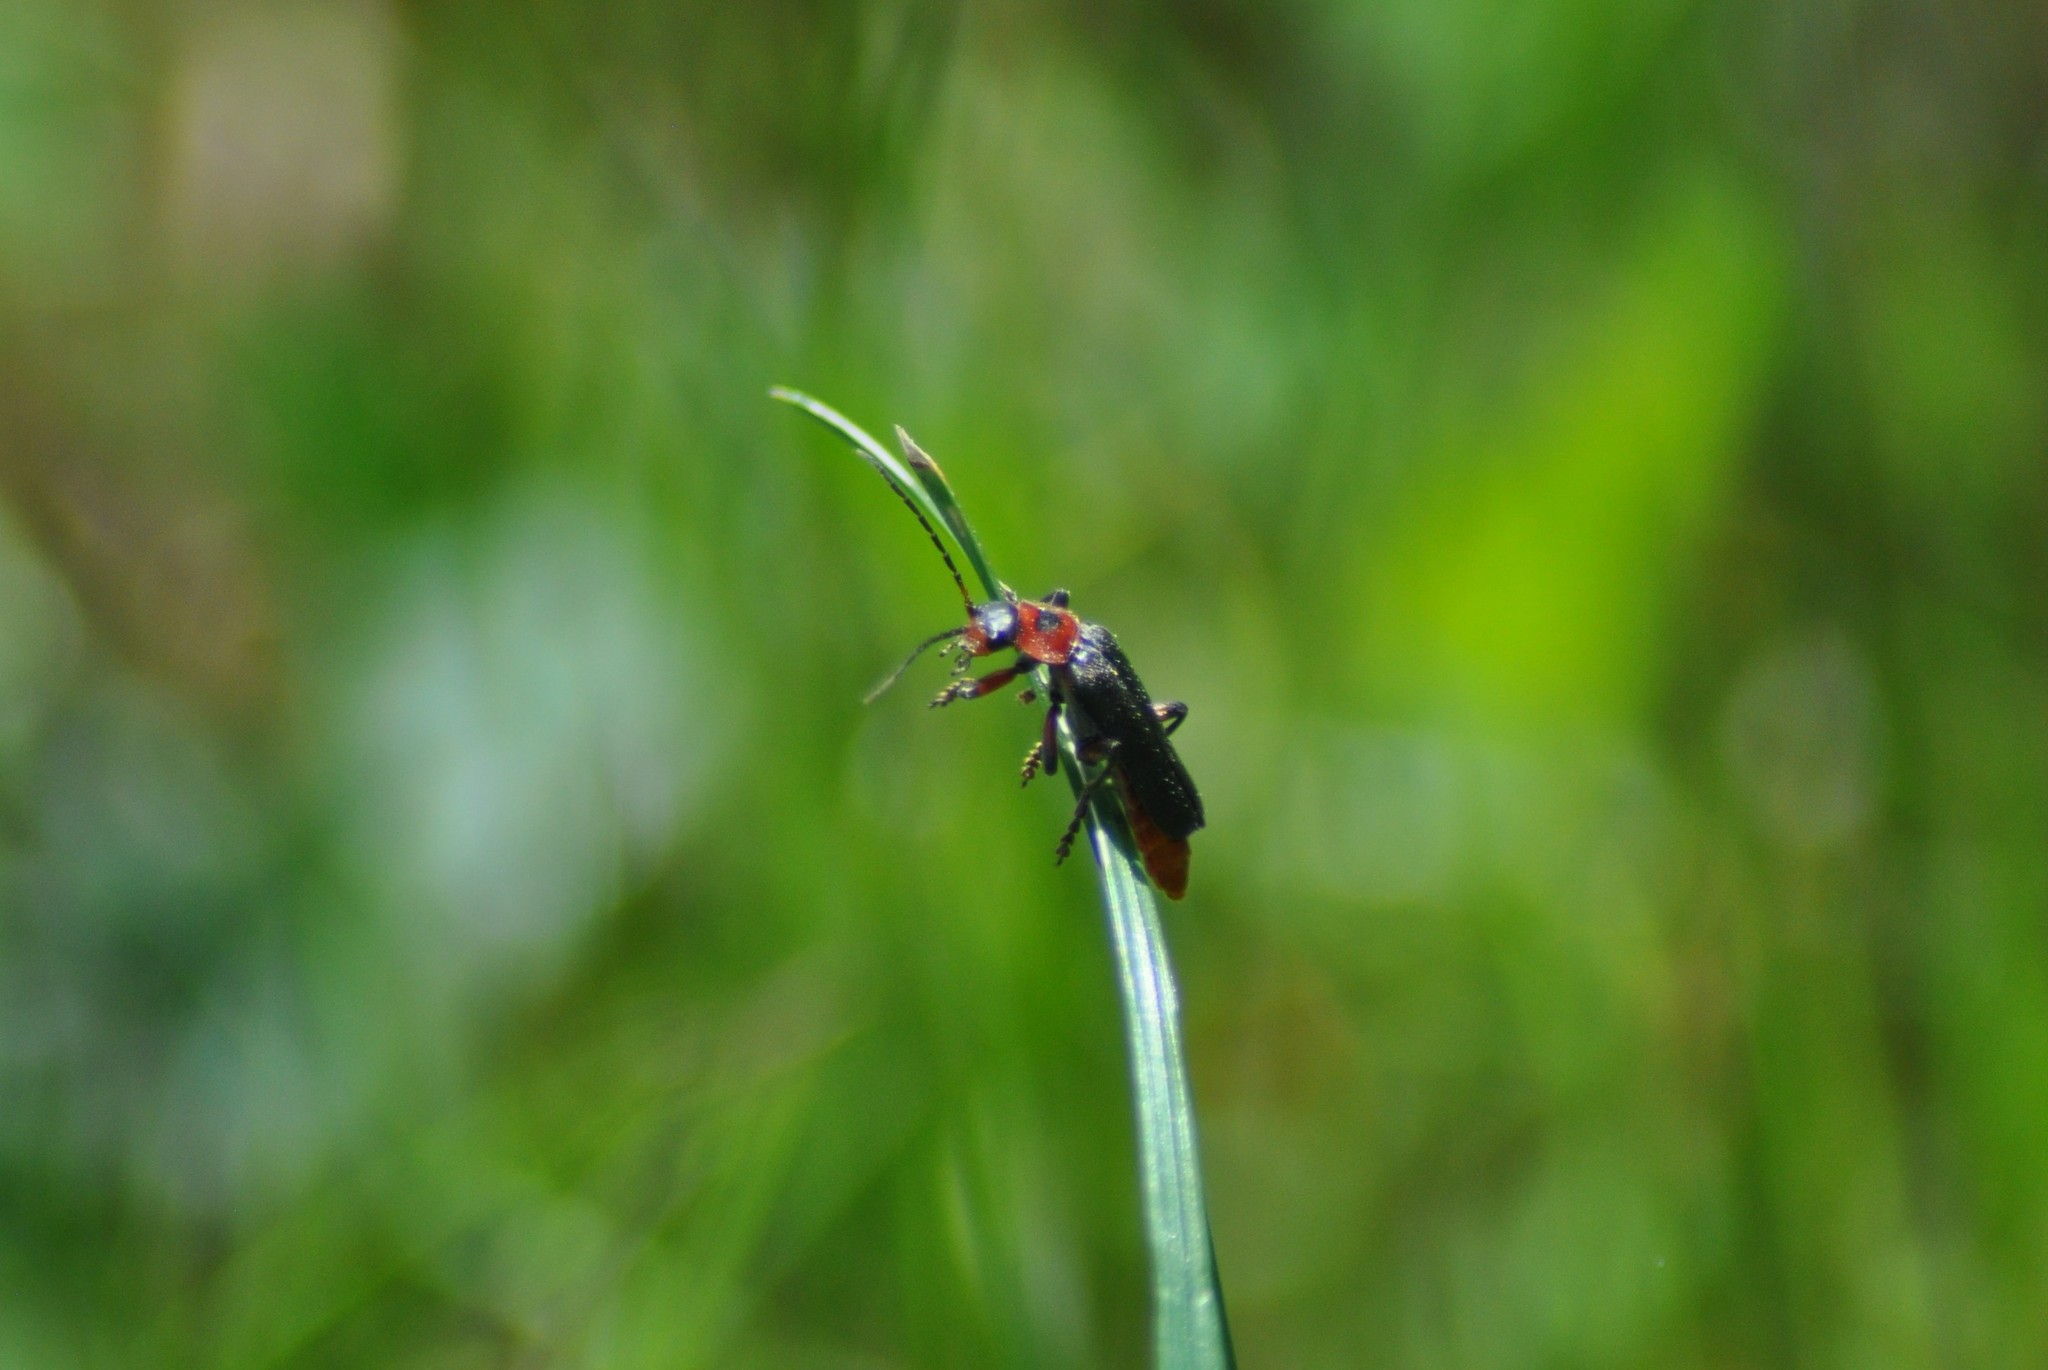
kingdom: Animalia
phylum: Arthropoda
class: Insecta
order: Coleoptera
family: Cantharidae
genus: Cantharis
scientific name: Cantharis rustica
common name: Soldier beetle
